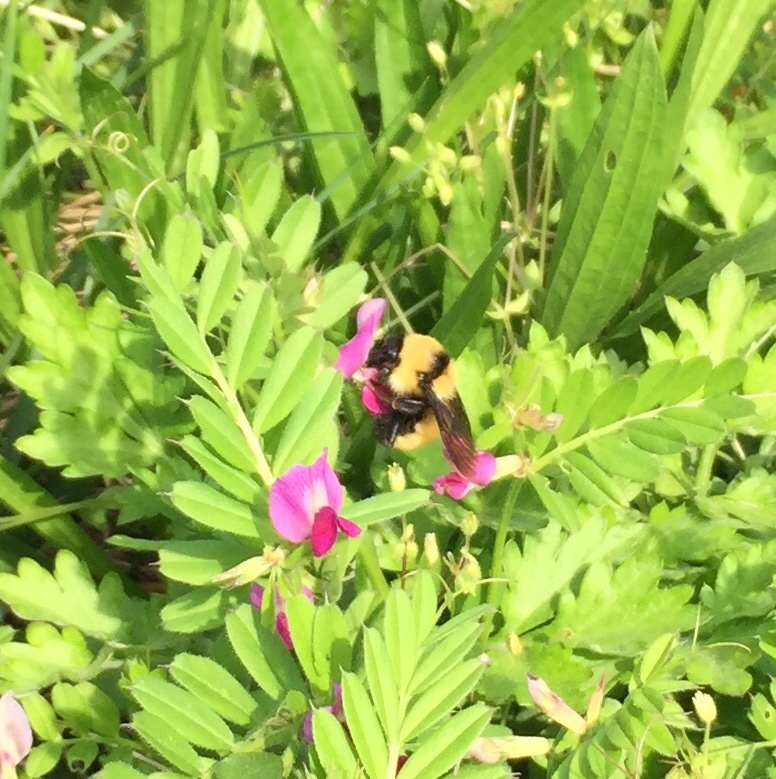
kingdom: Animalia
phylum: Arthropoda
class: Insecta
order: Hymenoptera
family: Apidae
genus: Bombus
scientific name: Bombus fervidus
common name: Yellow bumble bee
